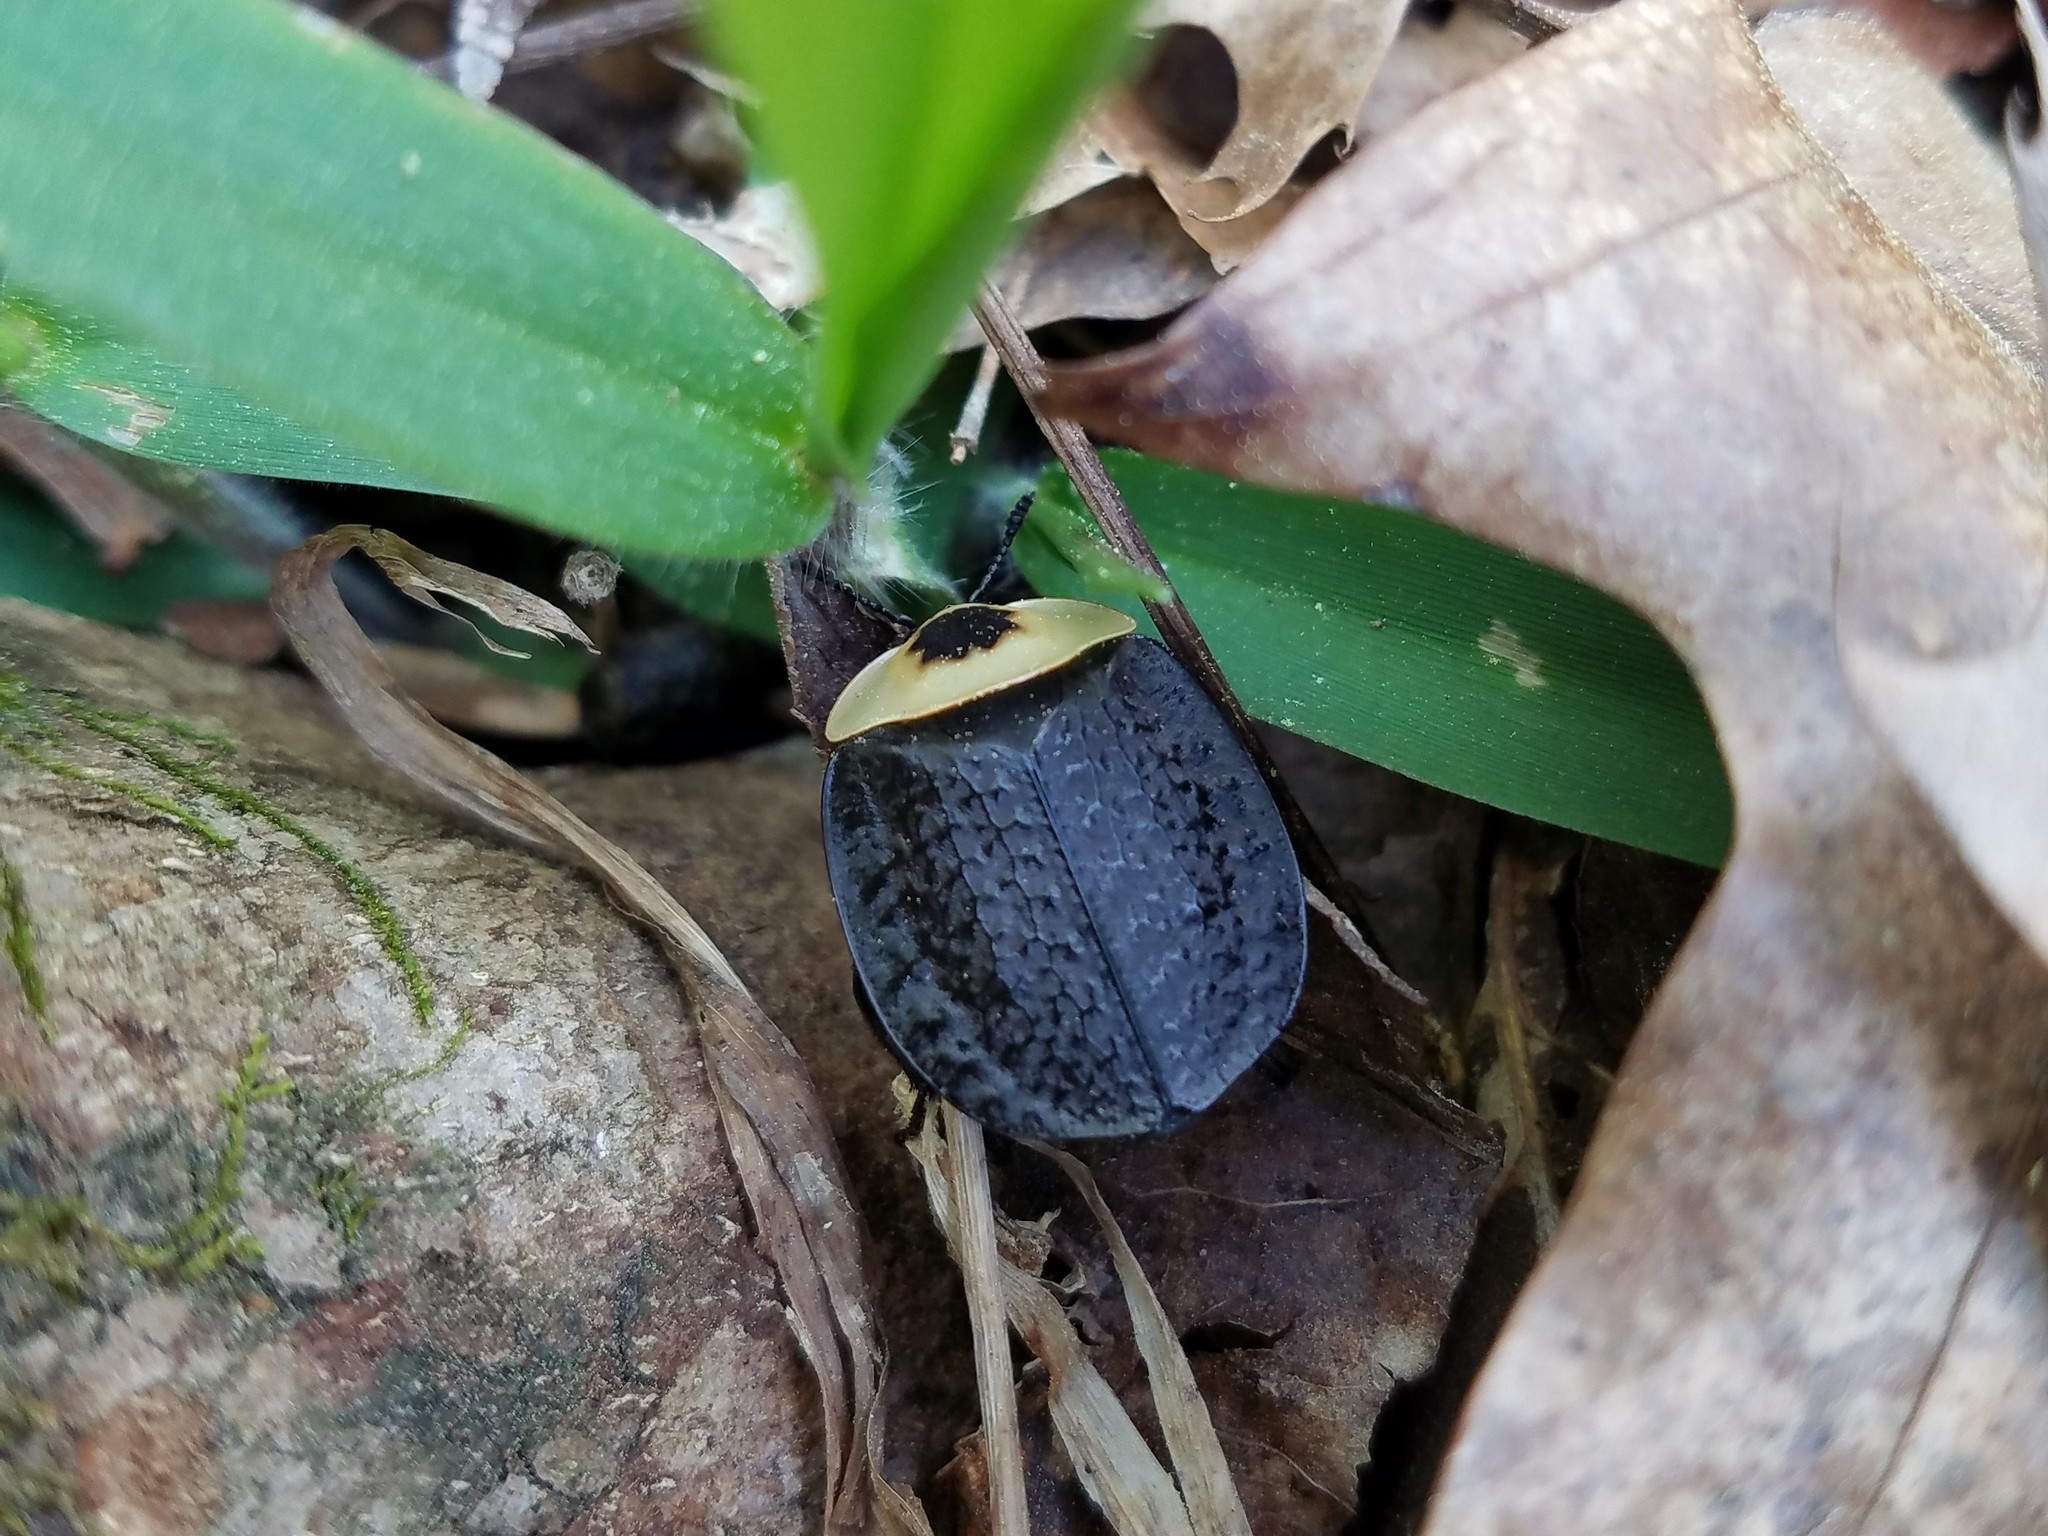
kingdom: Animalia
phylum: Arthropoda
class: Insecta
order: Coleoptera
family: Staphylinidae
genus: Necrophila
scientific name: Necrophila americana
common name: American carrion beetle
